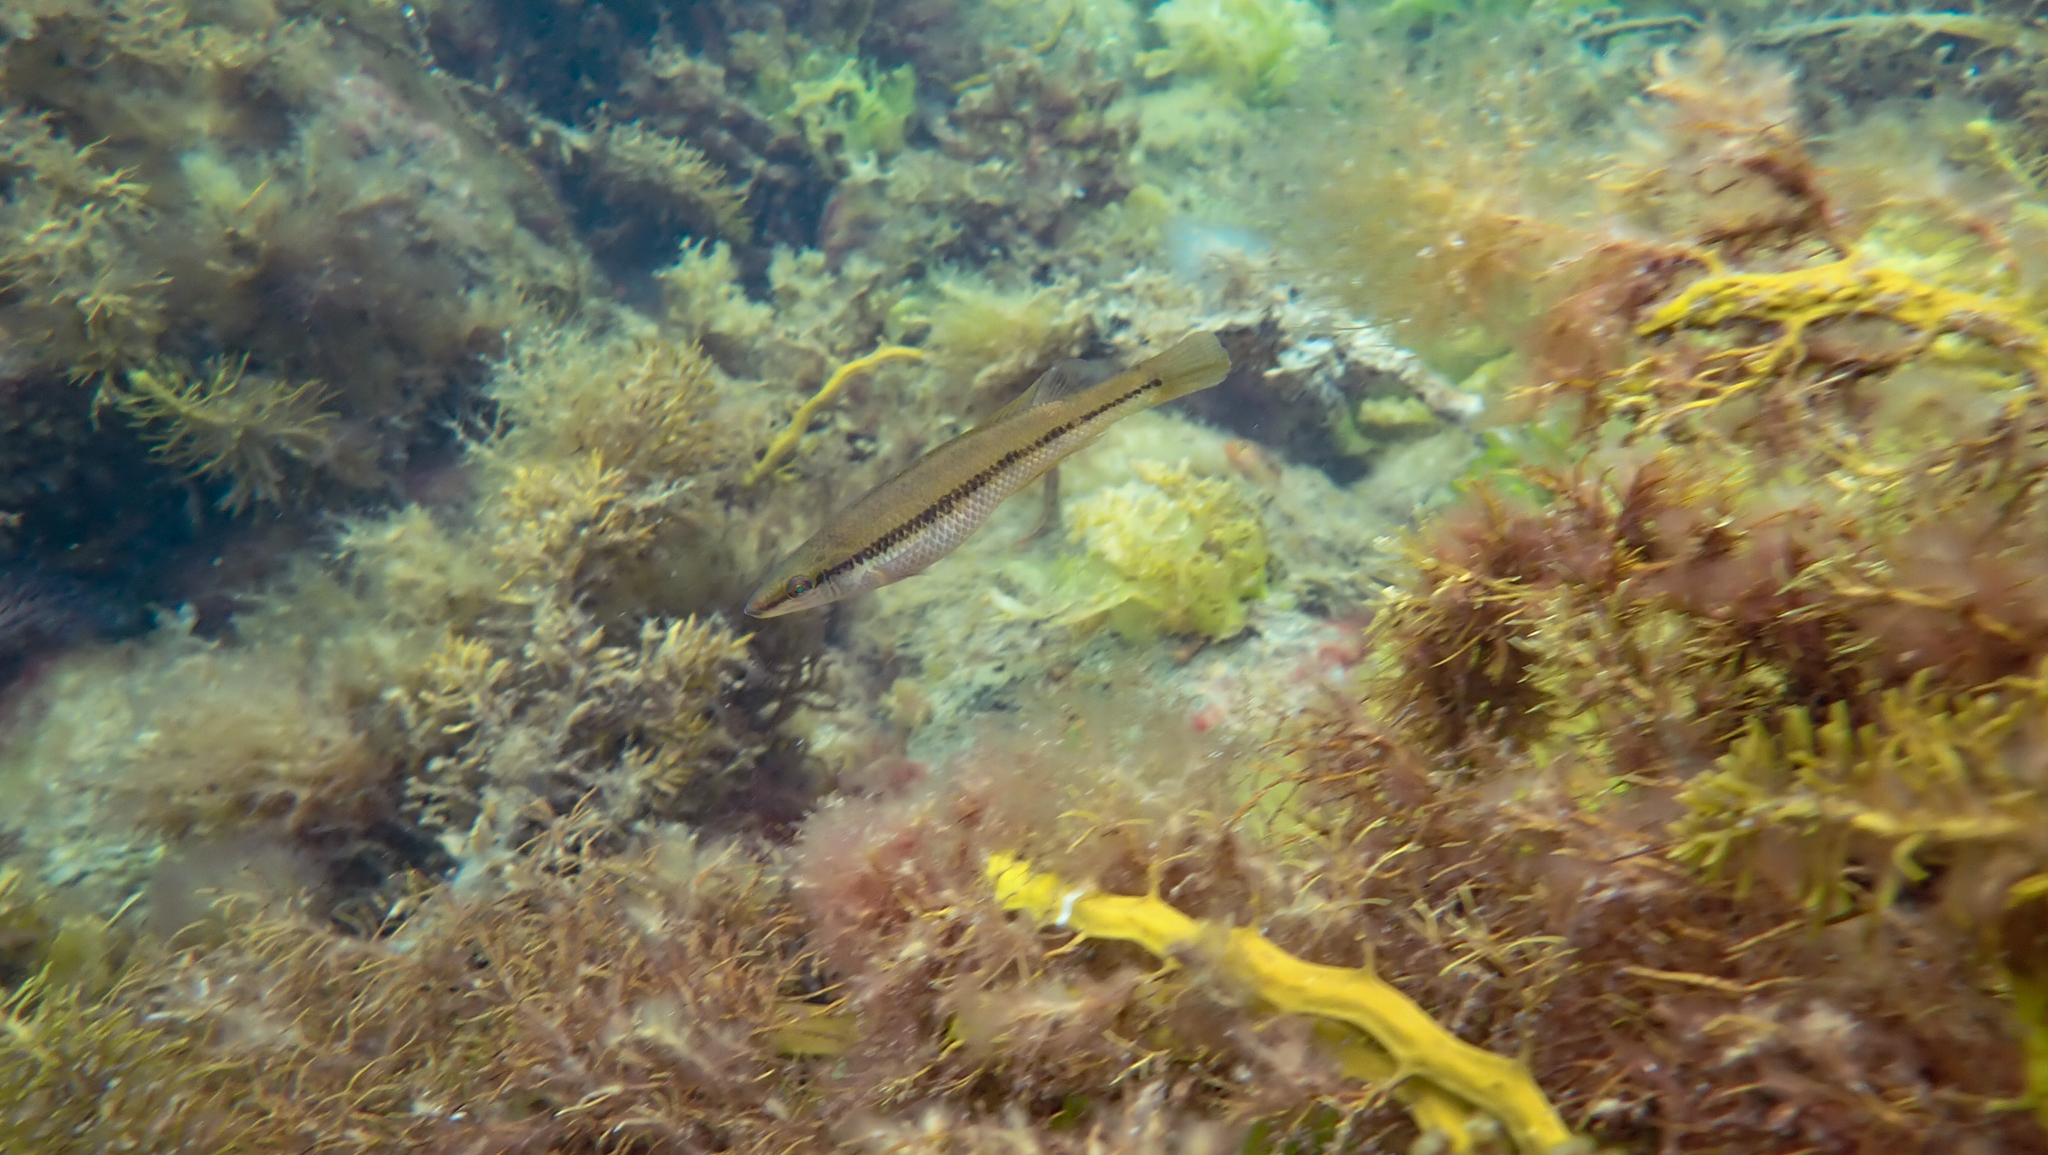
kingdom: Animalia
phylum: Chordata
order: Perciformes
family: Odacidae
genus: Neoodax
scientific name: Neoodax balteatus
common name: Ground mullet
